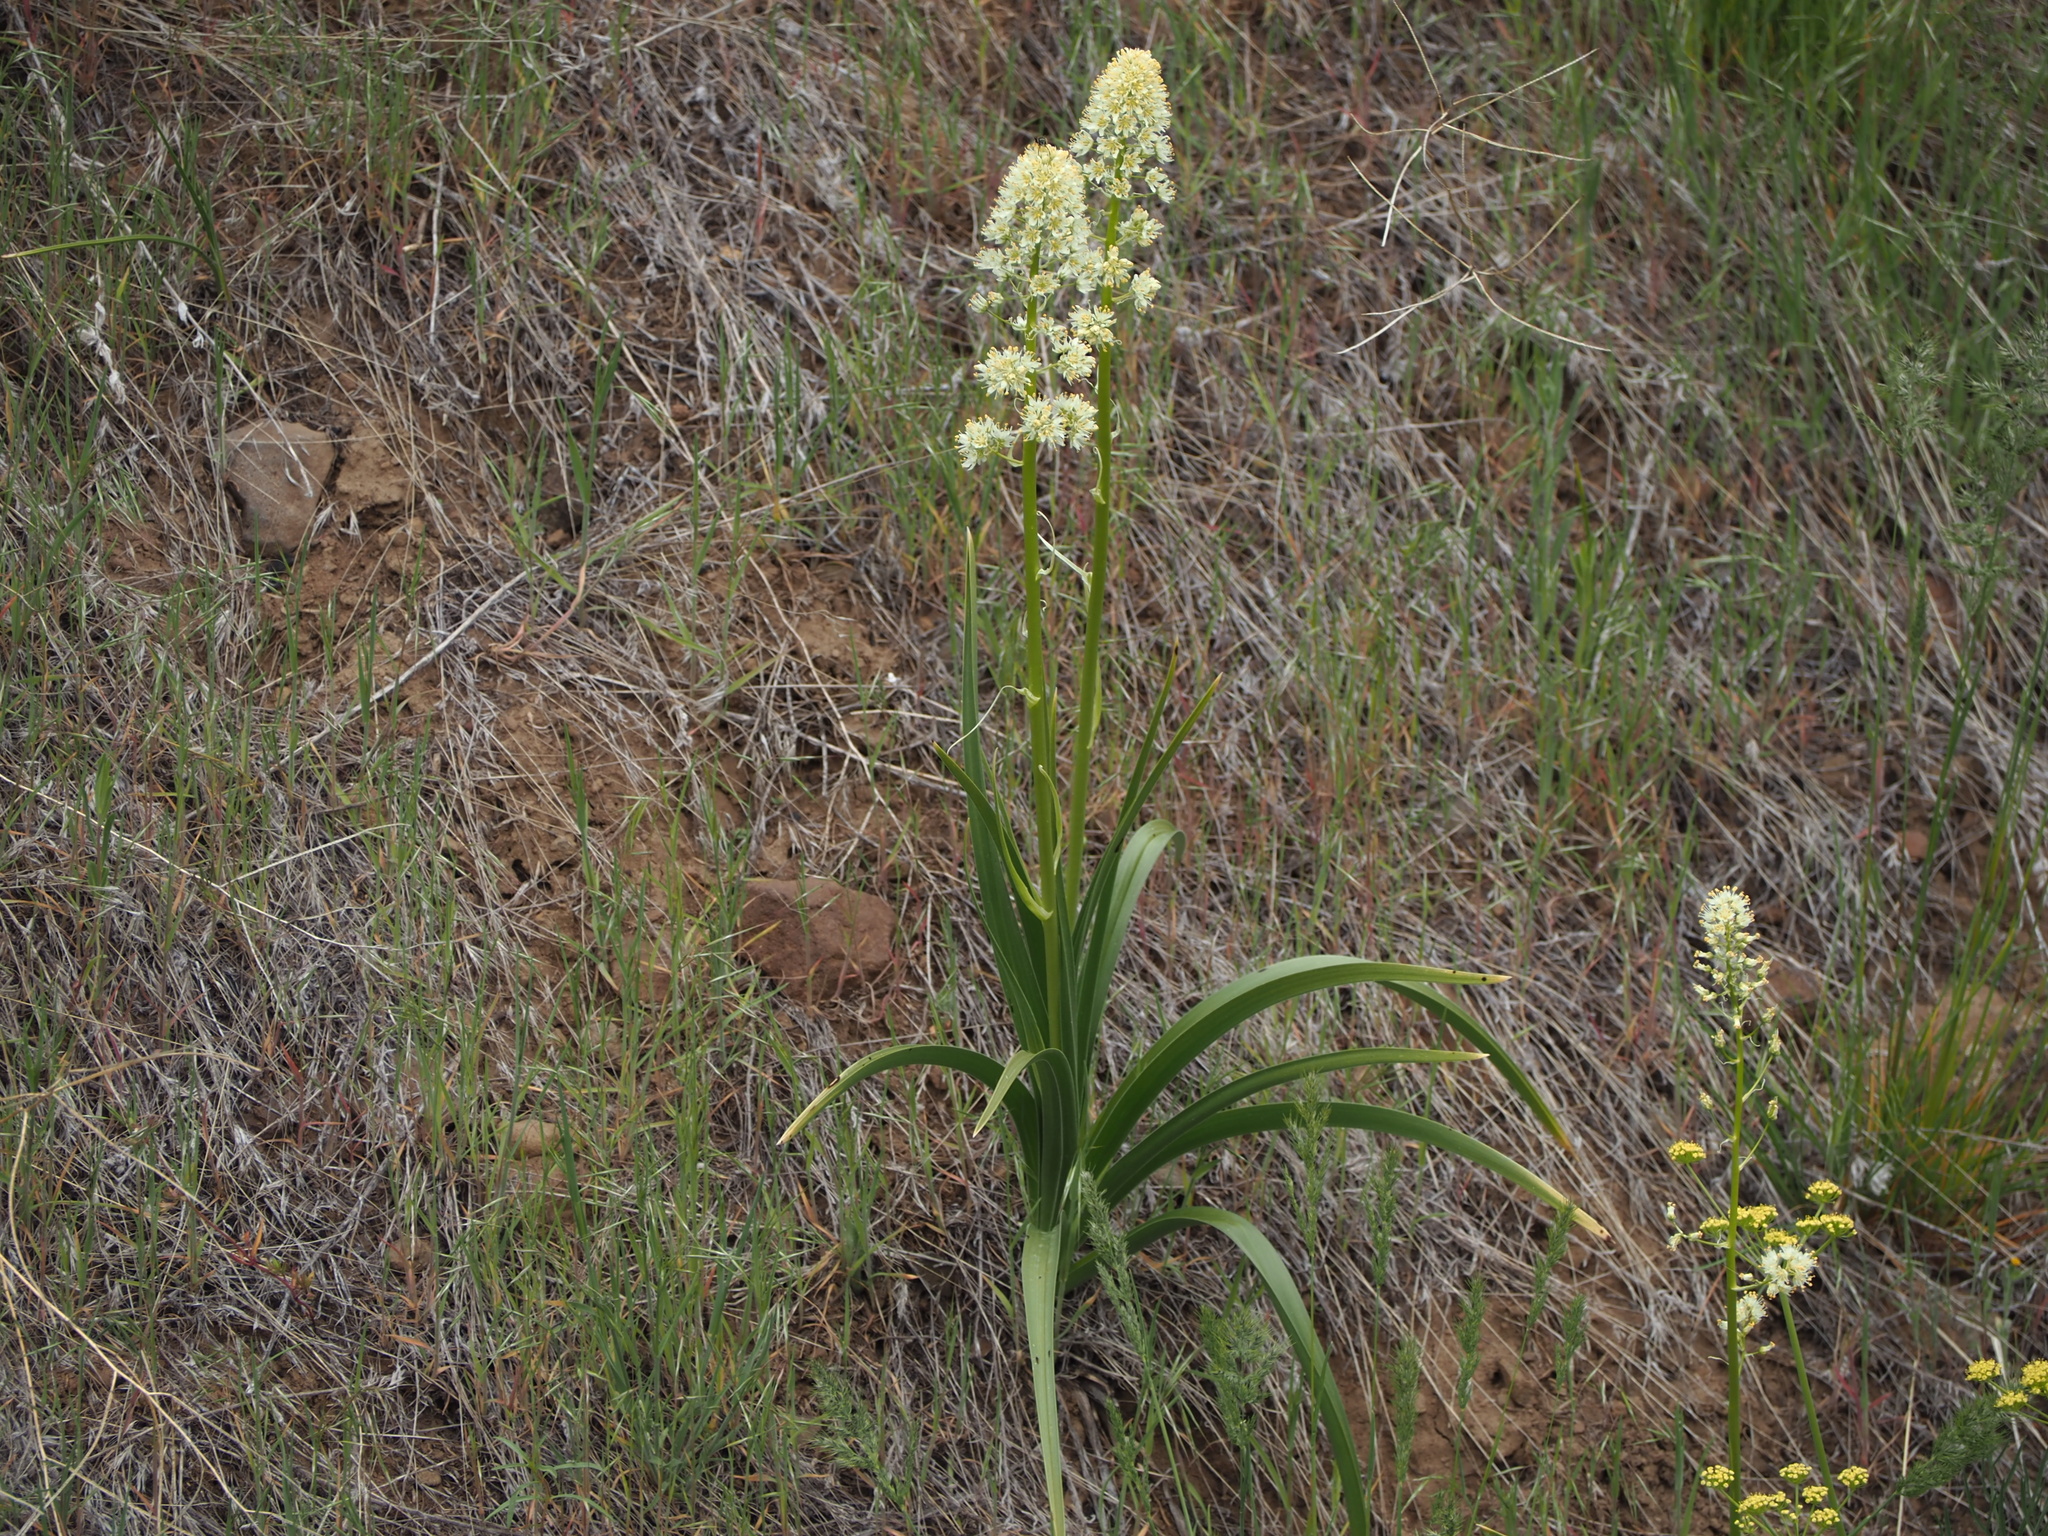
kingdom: Plantae
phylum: Tracheophyta
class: Liliopsida
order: Liliales
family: Melanthiaceae
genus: Toxicoscordion
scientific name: Toxicoscordion paniculatum
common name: Foothill death camas
